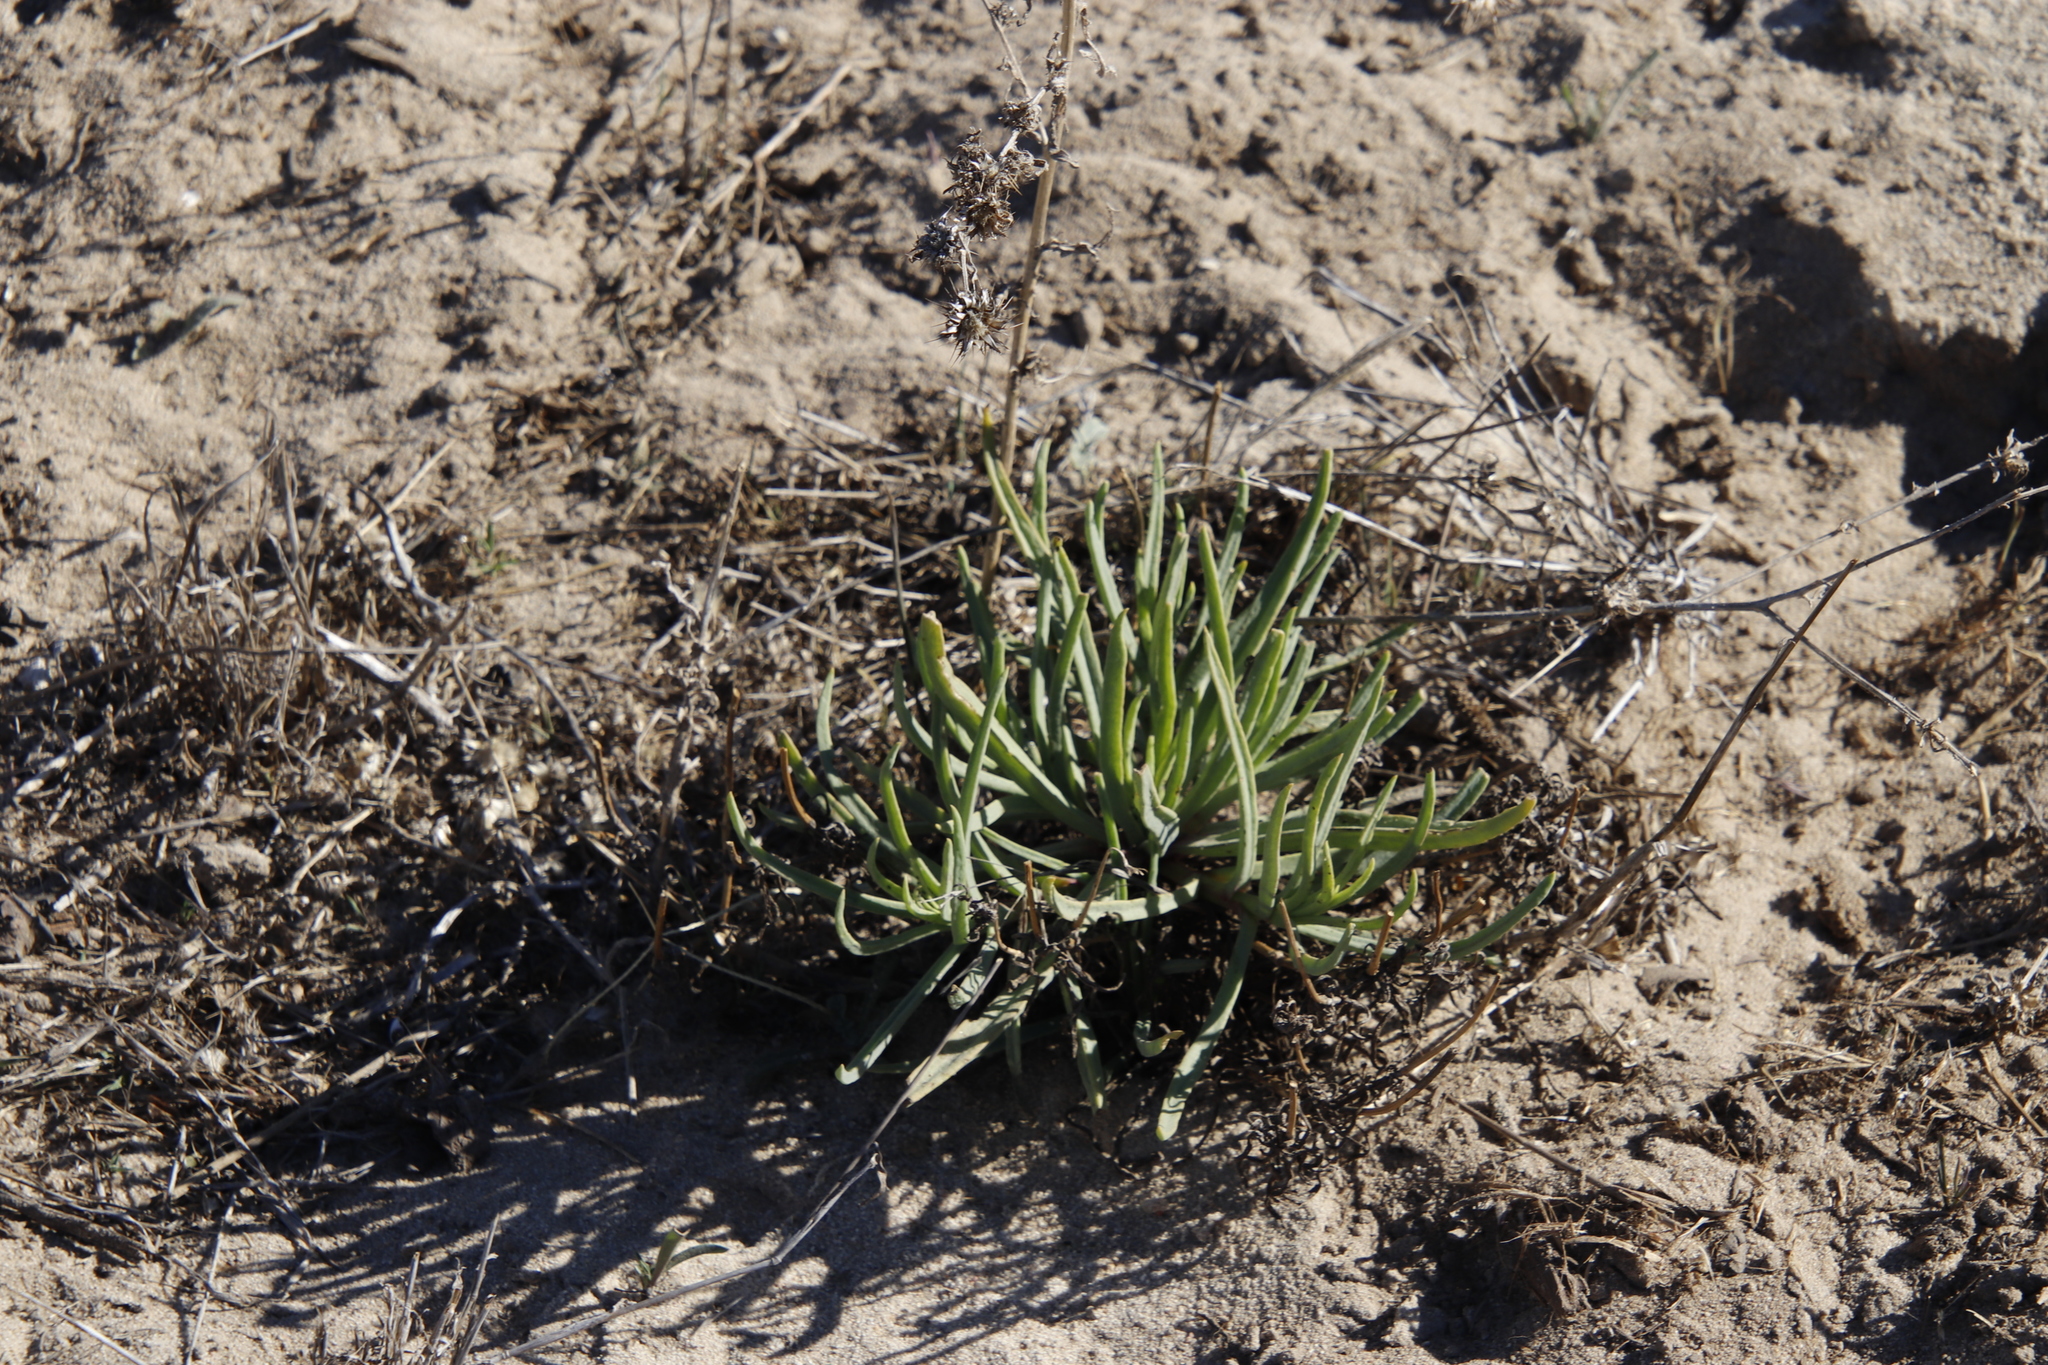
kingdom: Plantae
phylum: Tracheophyta
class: Magnoliopsida
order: Caryophyllales
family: Aizoaceae
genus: Conicosia
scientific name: Conicosia pugioniformis
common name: Narrow-leaved iceplant
